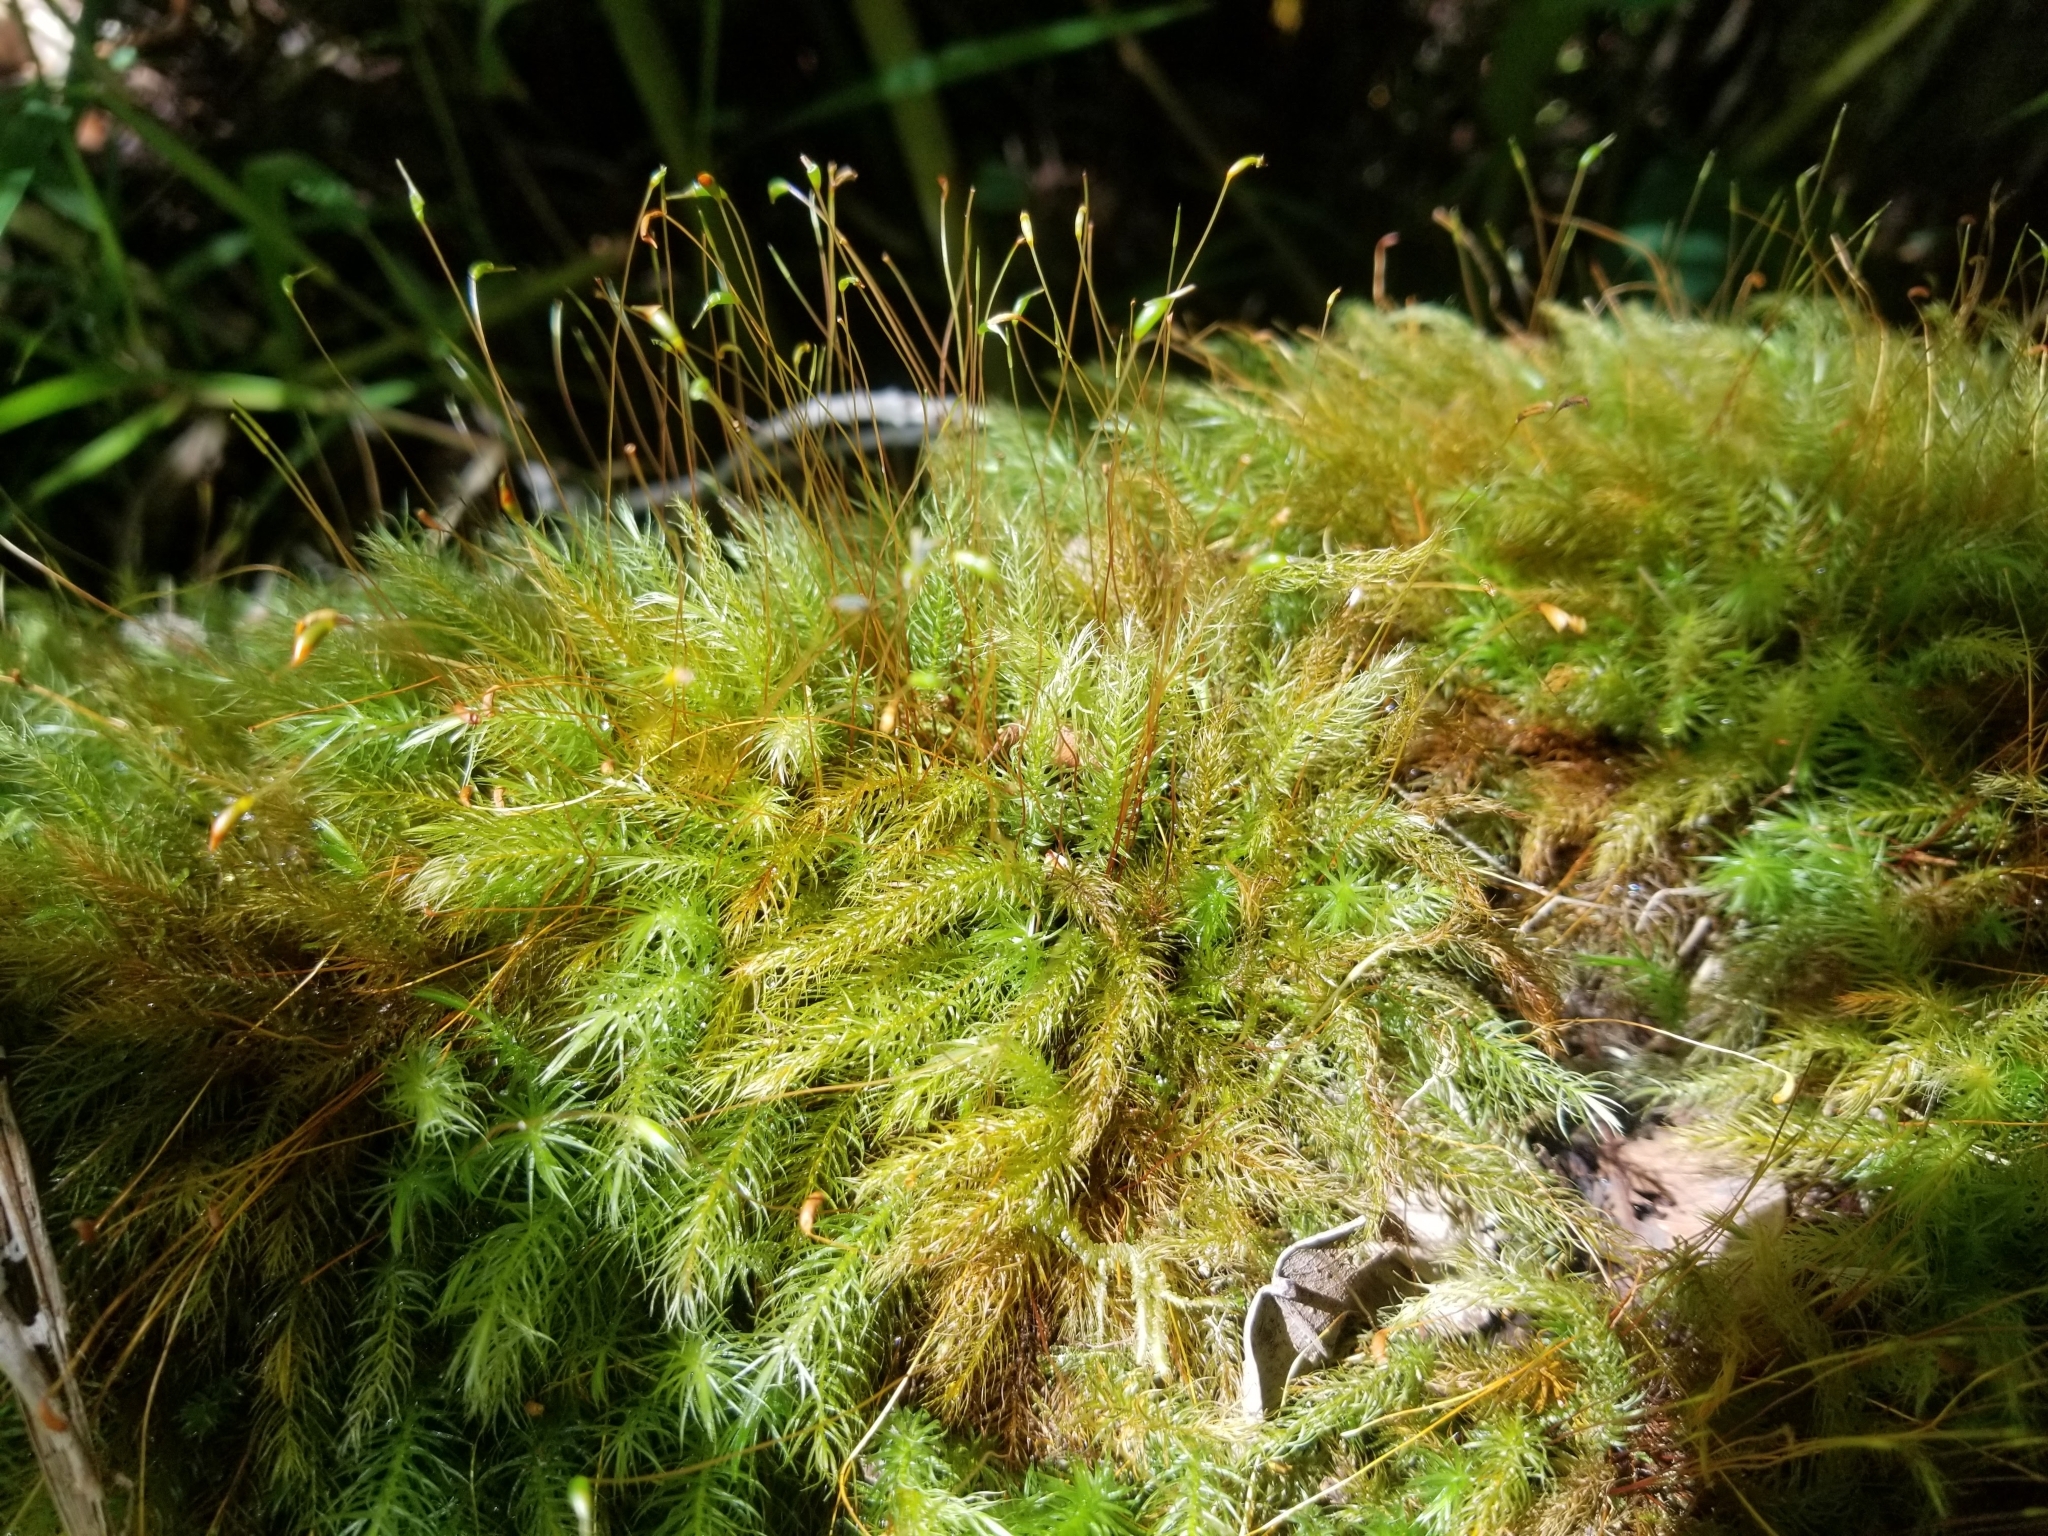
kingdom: Plantae
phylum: Bryophyta
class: Bryopsida
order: Rhizogoniales
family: Calomniaceae
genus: Pyrrhobryum
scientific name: Pyrrhobryum spiniforme
